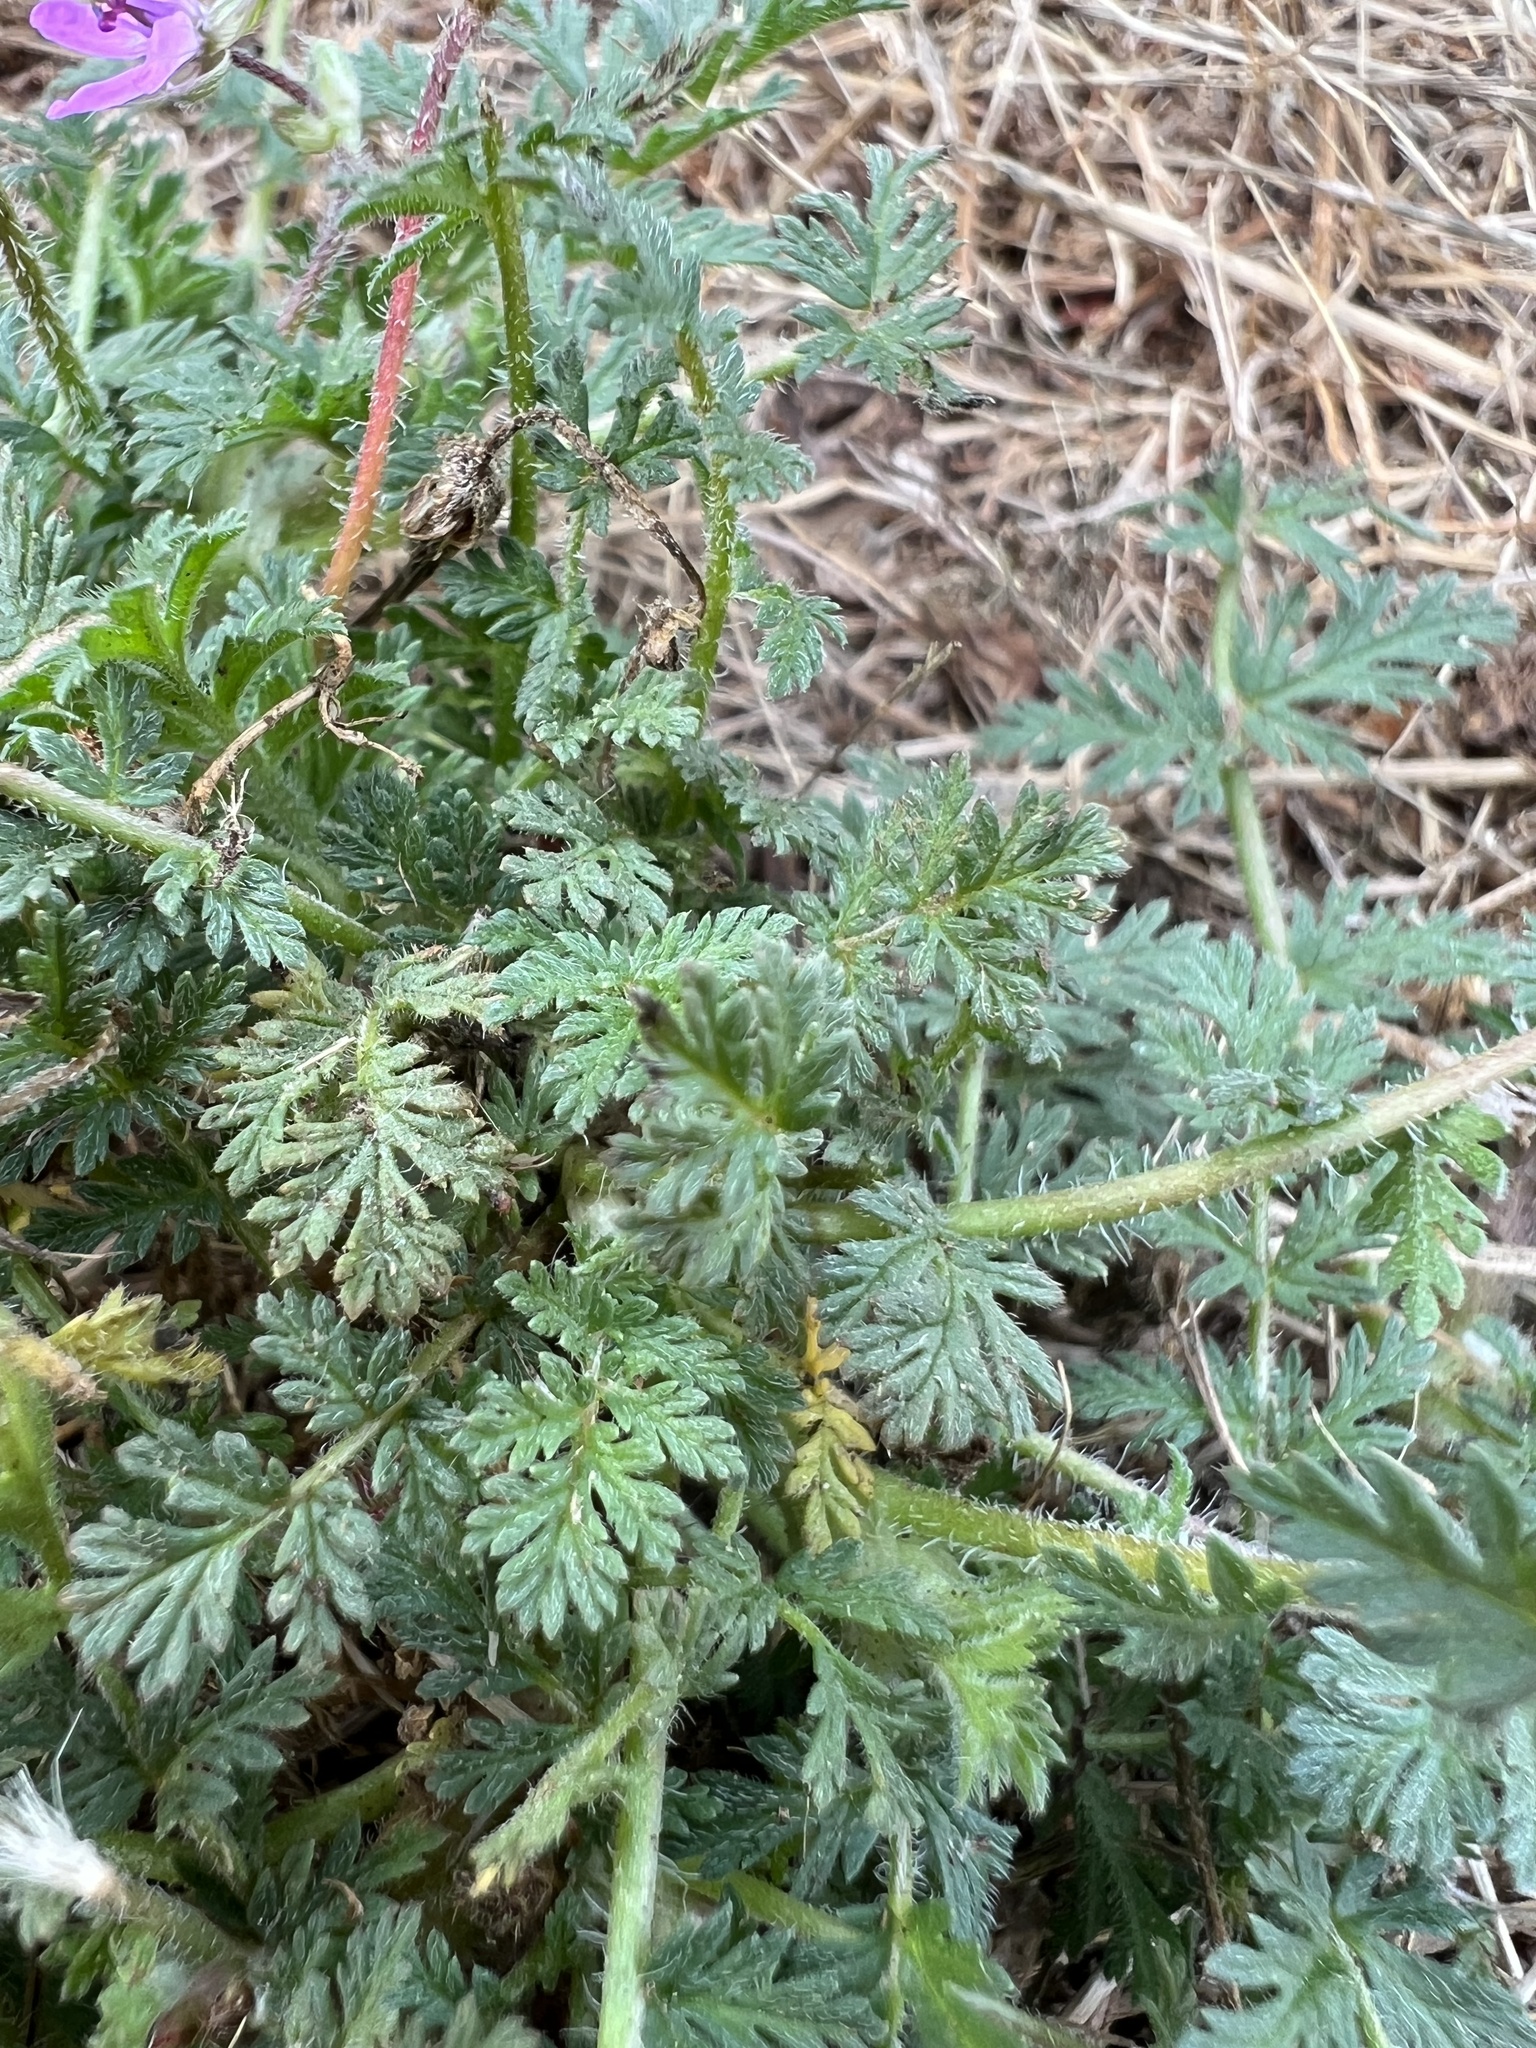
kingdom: Plantae
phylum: Tracheophyta
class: Magnoliopsida
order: Geraniales
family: Geraniaceae
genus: Erodium
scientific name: Erodium cicutarium
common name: Common stork's-bill
